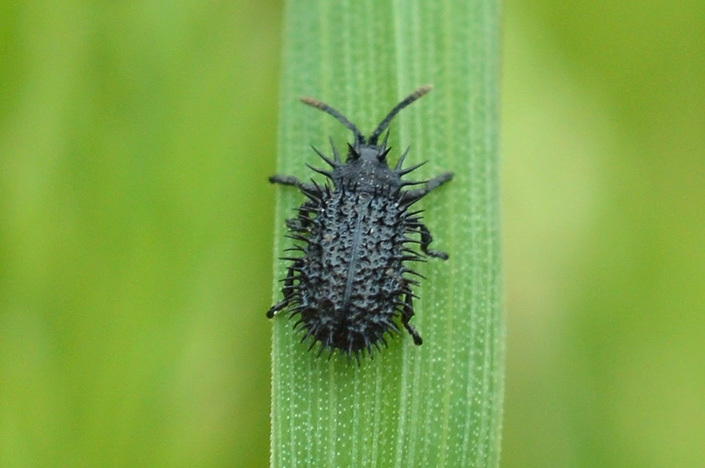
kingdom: Animalia
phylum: Arthropoda
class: Insecta
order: Coleoptera
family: Chrysomelidae
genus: Hispa
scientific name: Hispa atra
